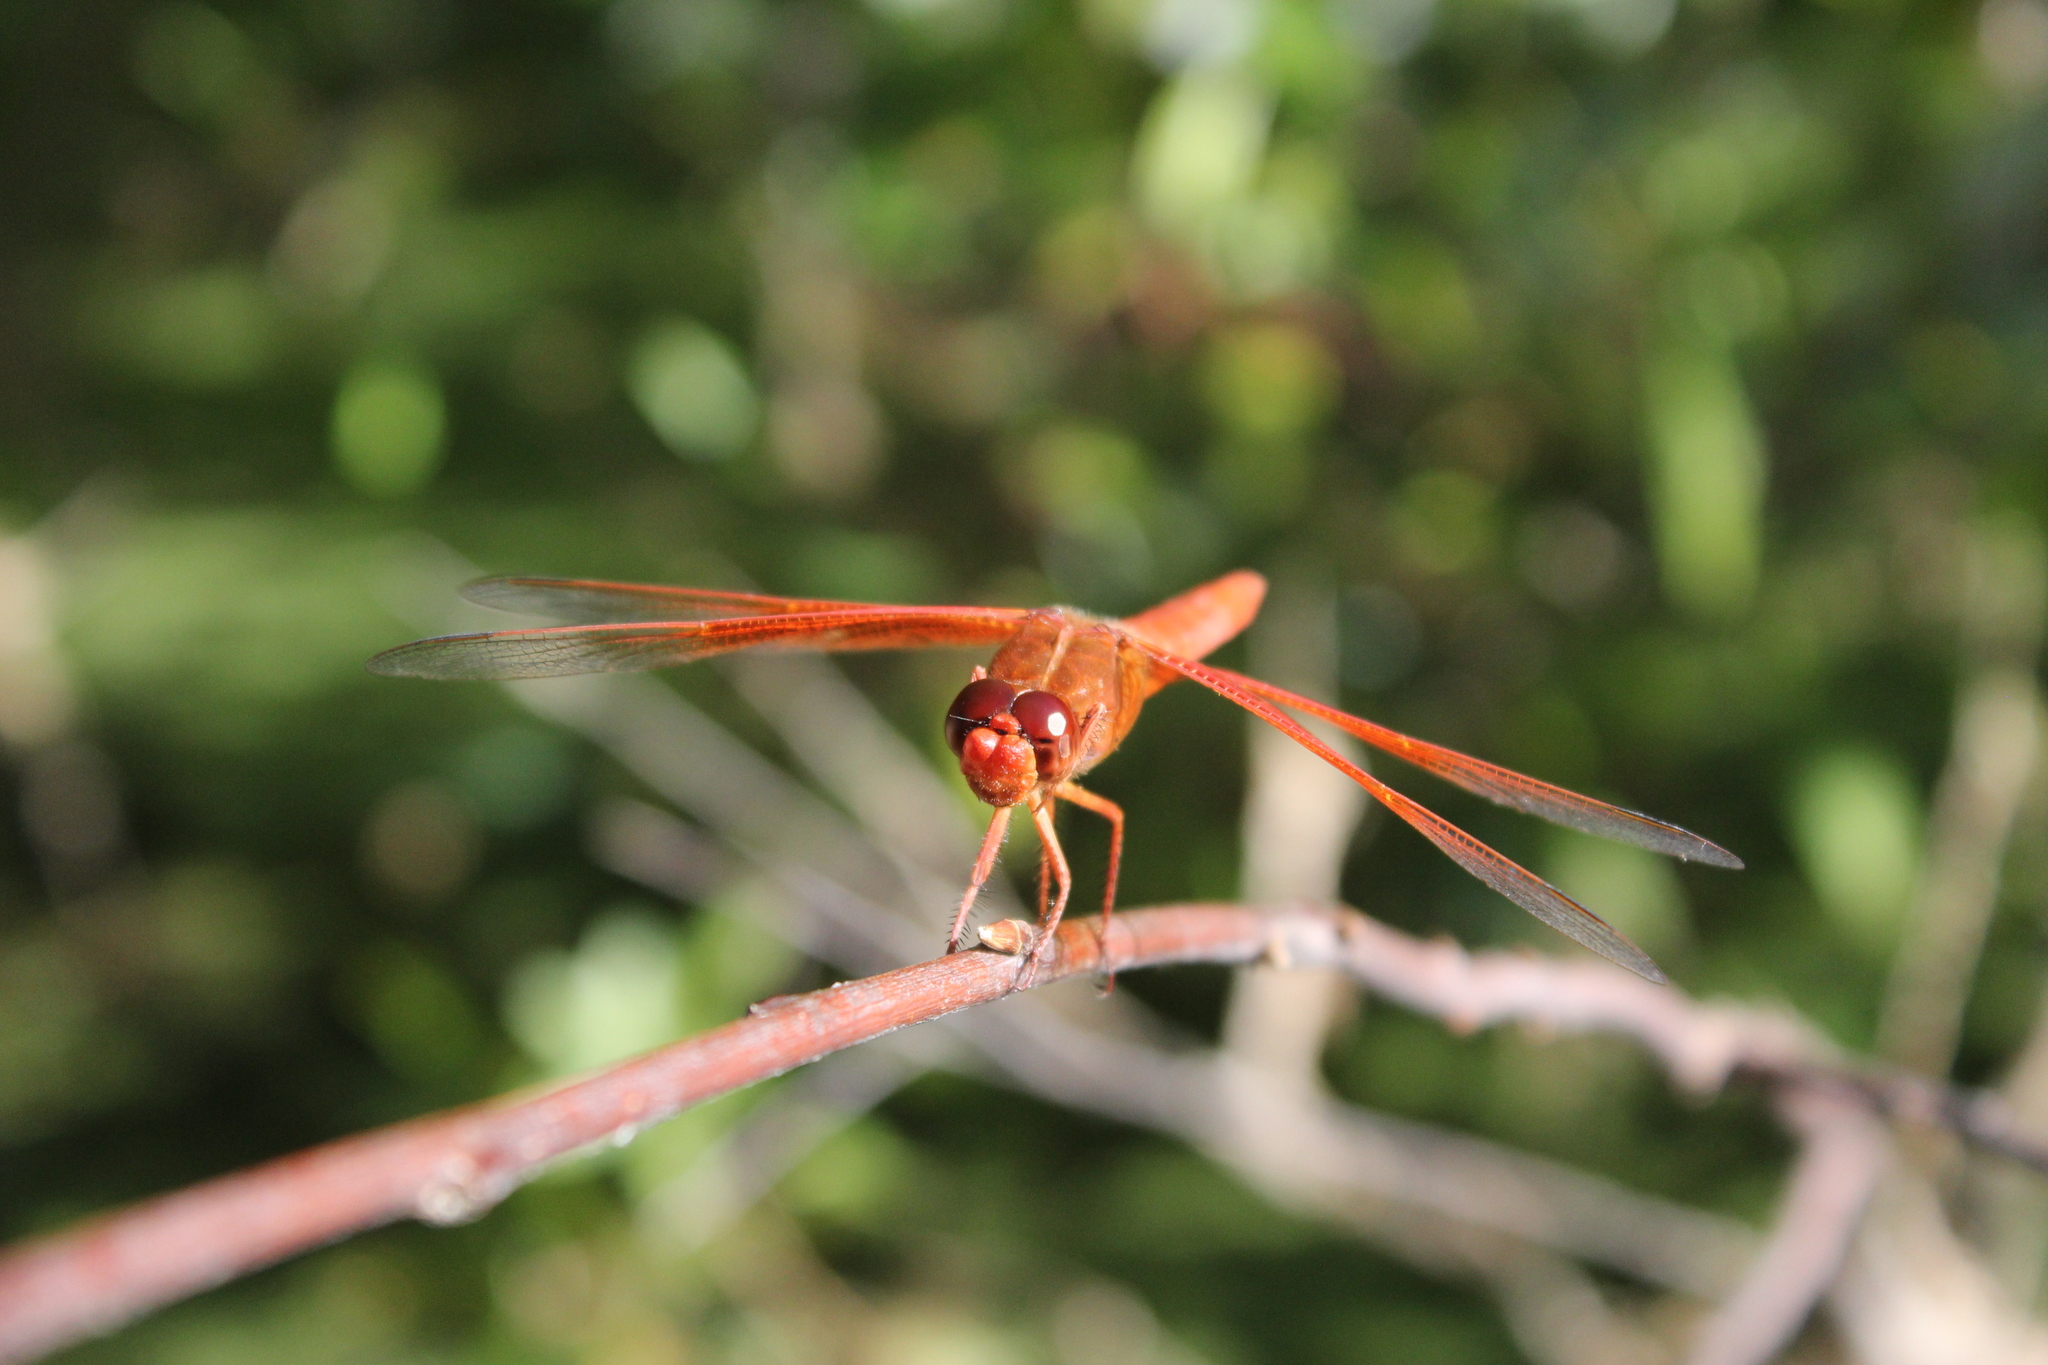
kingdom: Animalia
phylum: Arthropoda
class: Insecta
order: Odonata
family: Libellulidae
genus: Libellula
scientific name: Libellula saturata
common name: Flame skimmer
